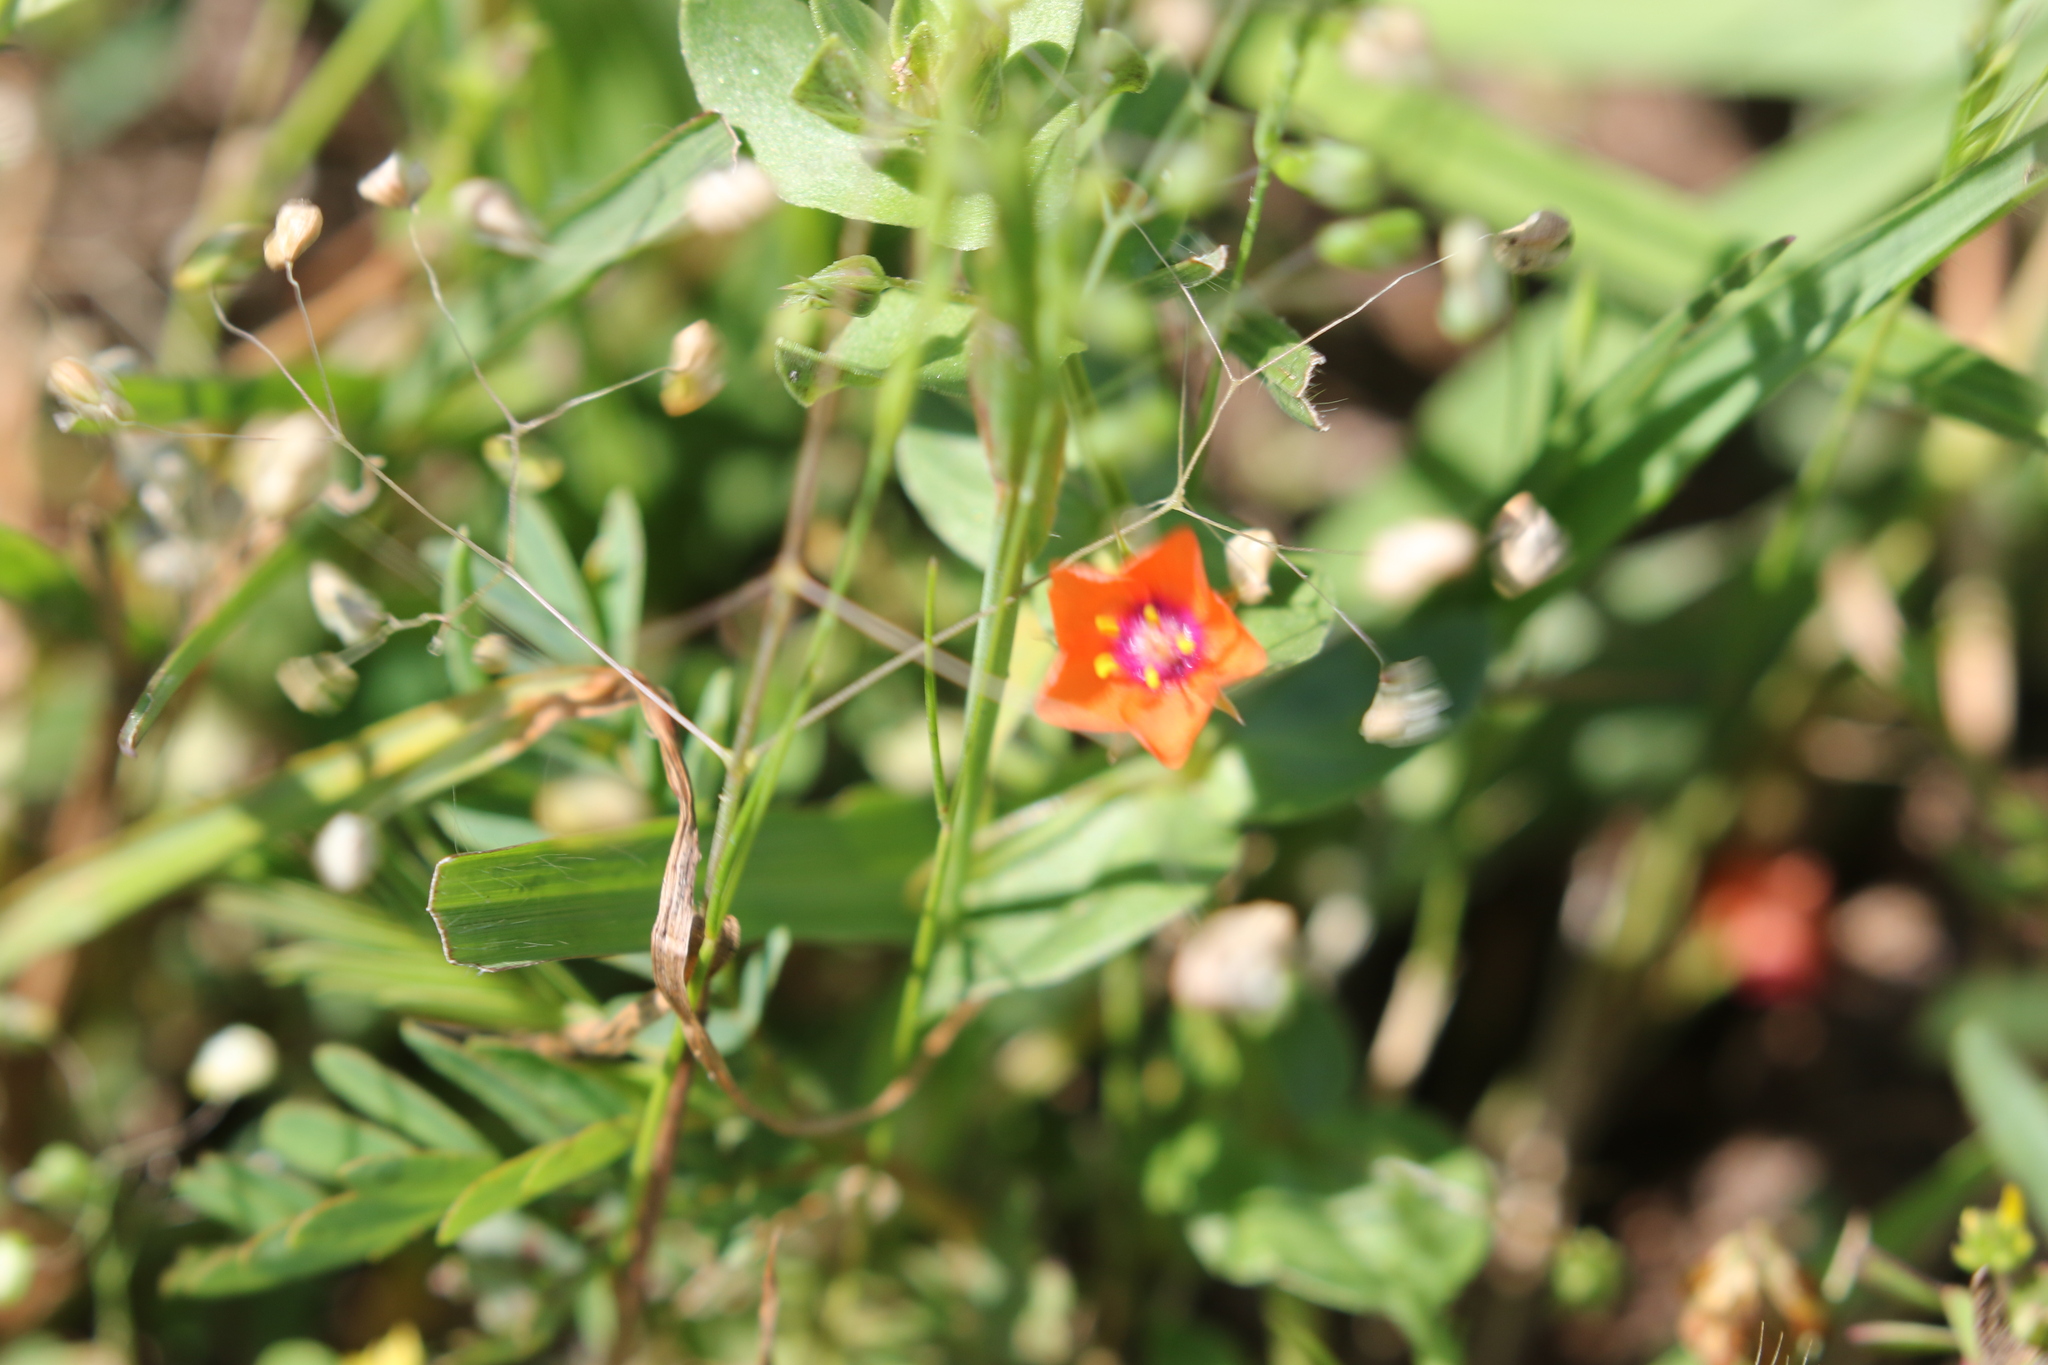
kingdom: Plantae
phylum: Tracheophyta
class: Magnoliopsida
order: Ericales
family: Primulaceae
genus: Lysimachia
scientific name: Lysimachia arvensis
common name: Scarlet pimpernel
